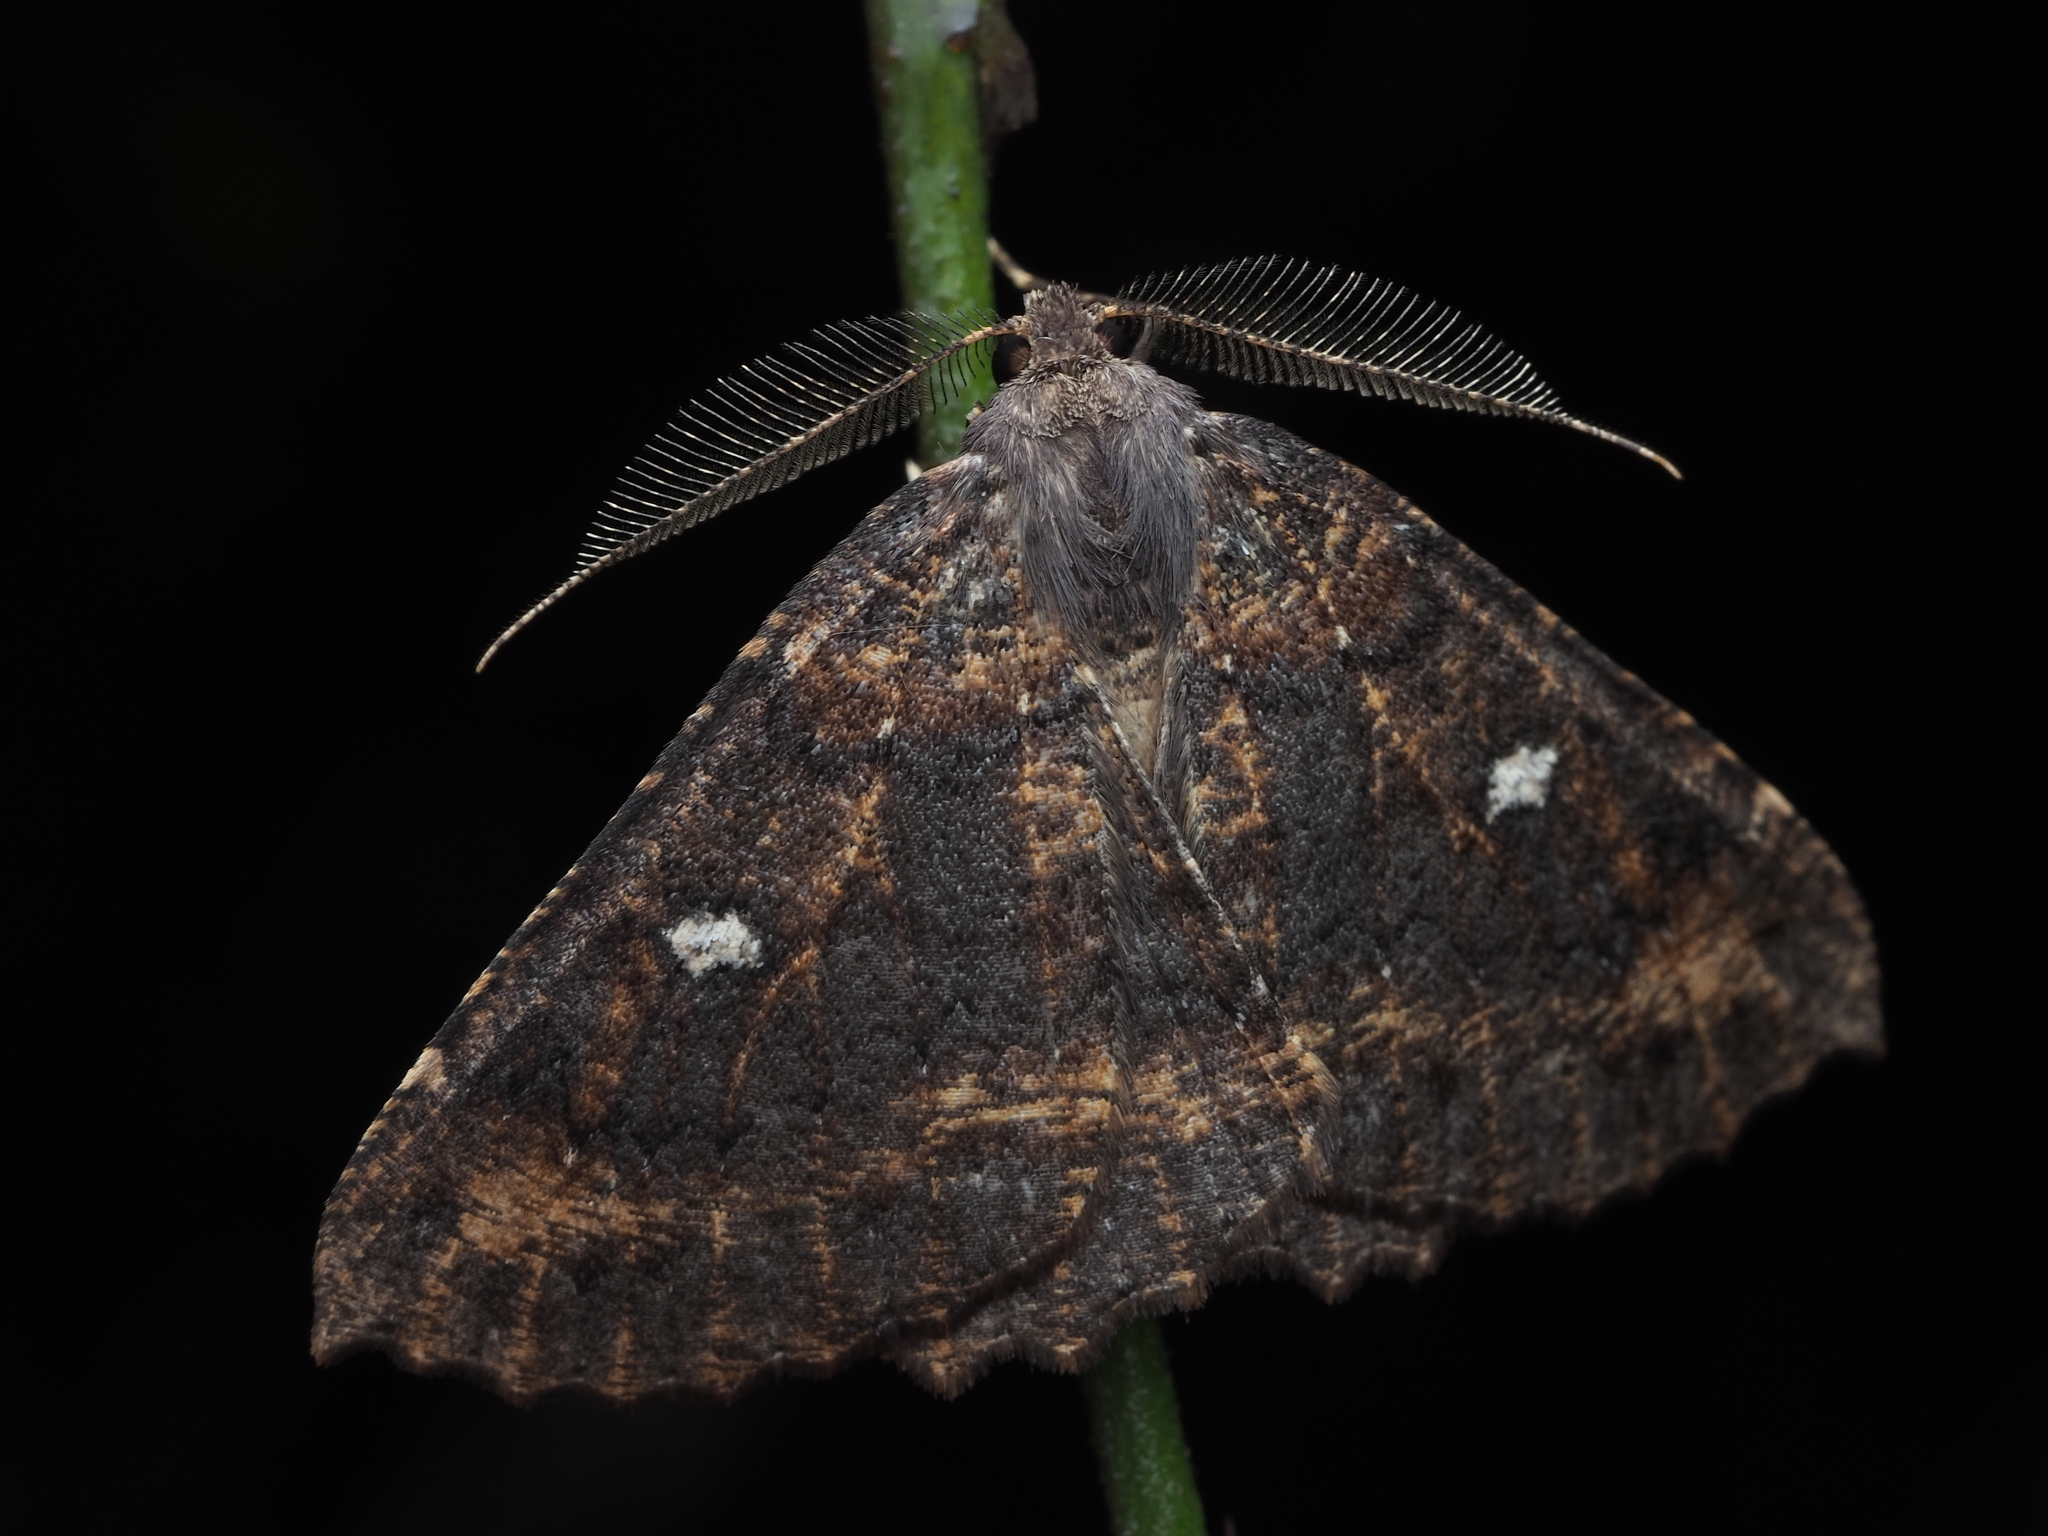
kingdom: Animalia
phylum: Arthropoda
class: Insecta
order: Lepidoptera
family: Geometridae
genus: Cleora
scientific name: Cleora scriptaria
